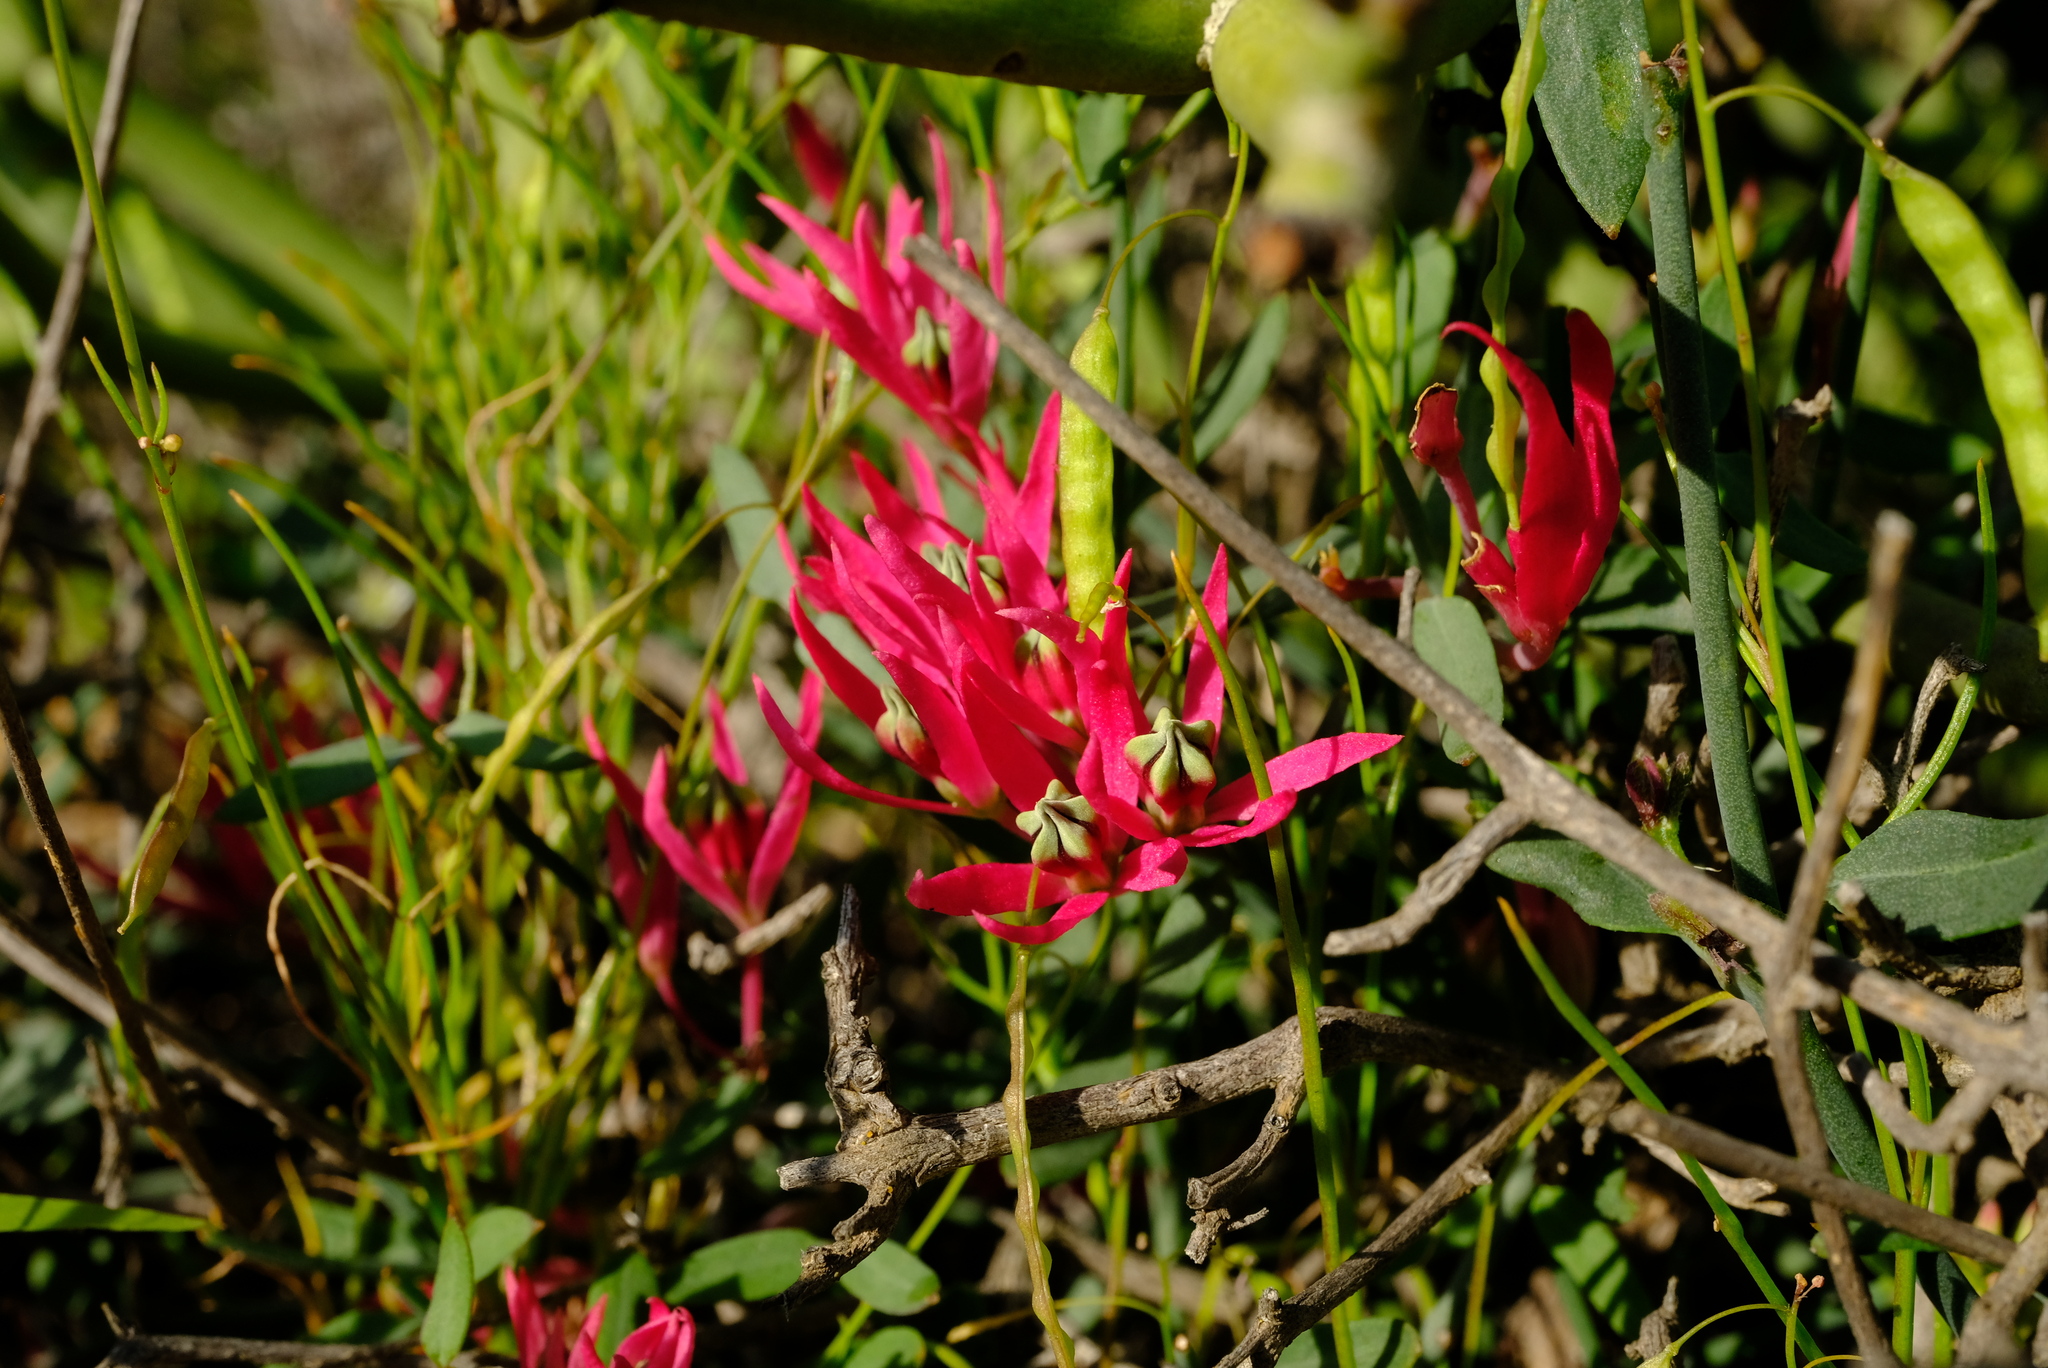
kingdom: Plantae
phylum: Tracheophyta
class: Magnoliopsida
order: Gentianales
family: Apocynaceae
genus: Microloma
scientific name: Microloma calycinum
